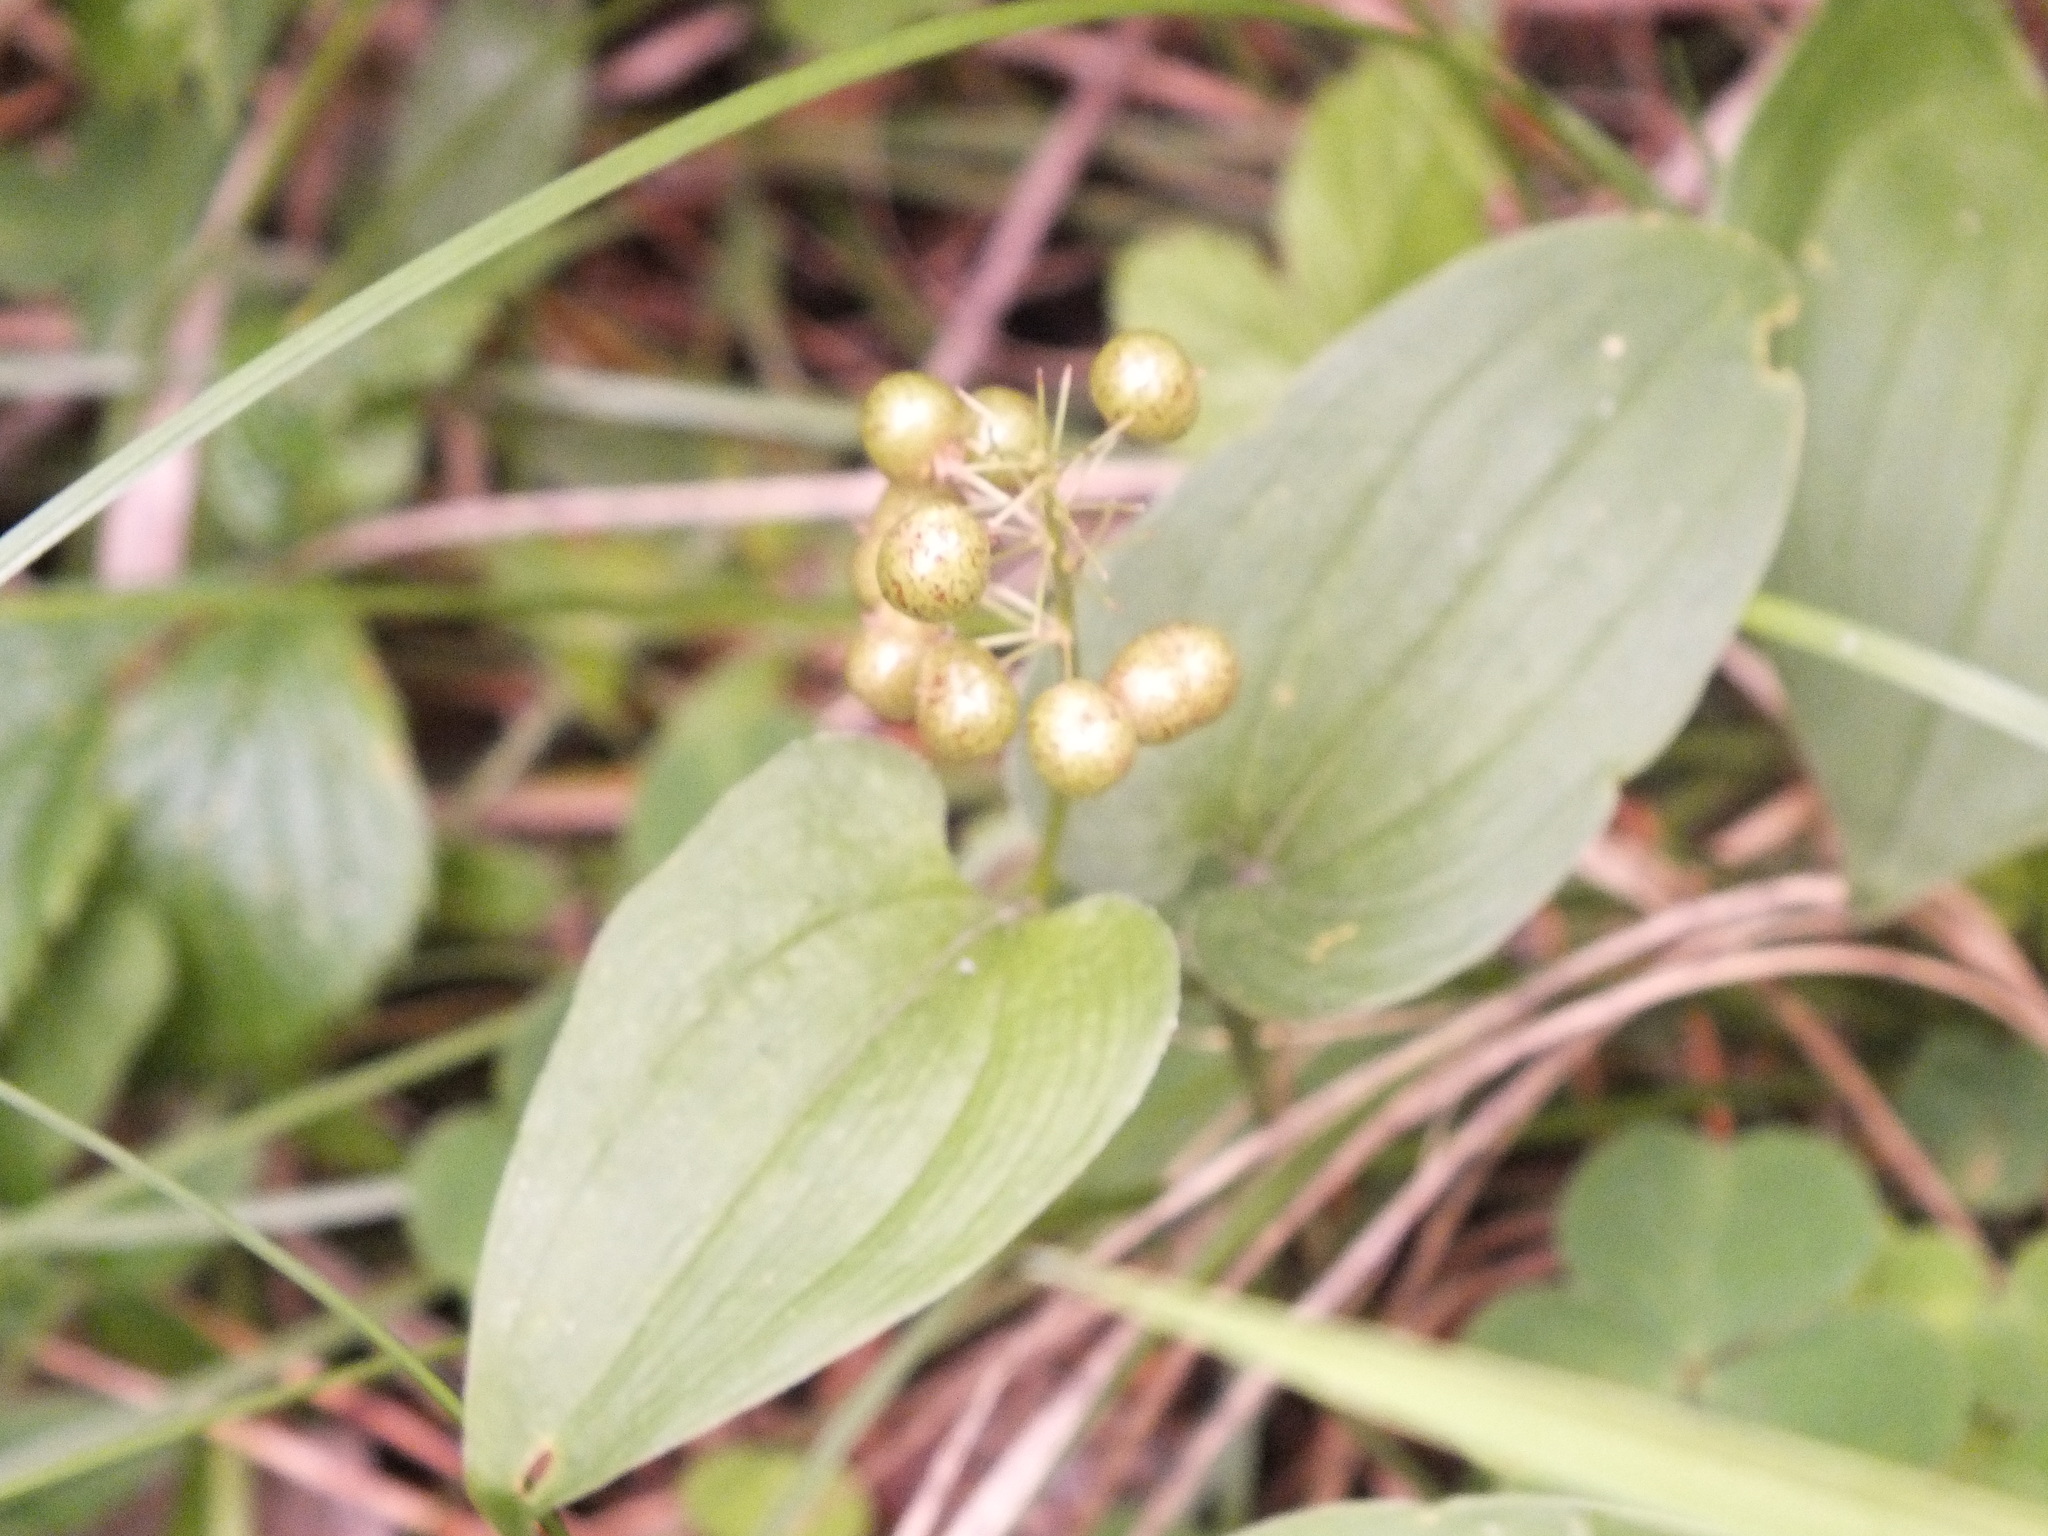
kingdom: Plantae
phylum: Tracheophyta
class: Liliopsida
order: Asparagales
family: Asparagaceae
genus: Maianthemum
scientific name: Maianthemum bifolium
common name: May lily
